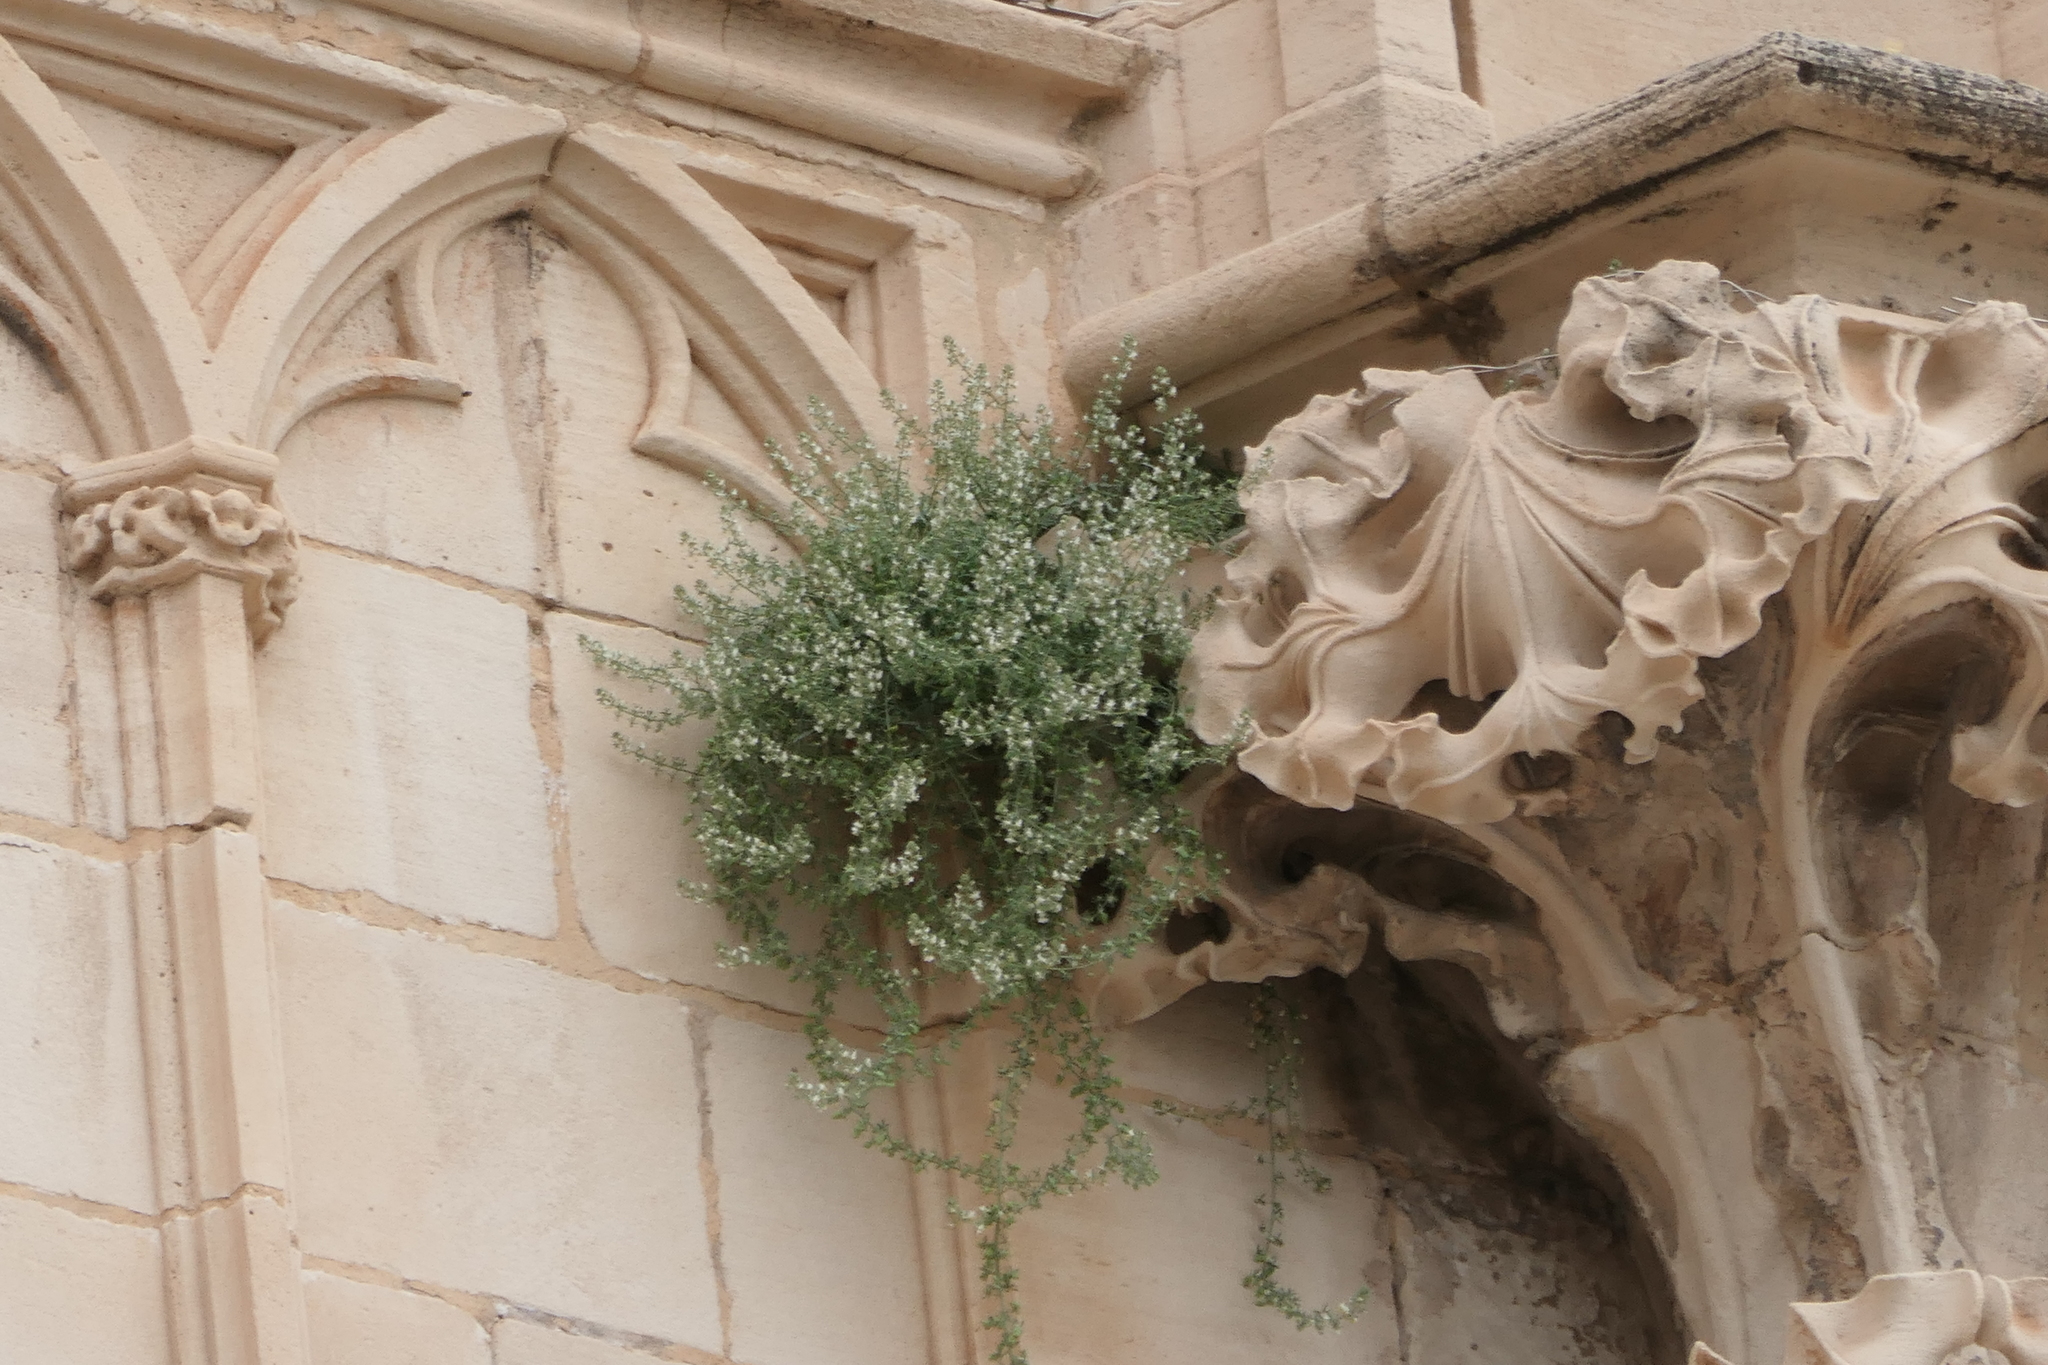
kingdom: Plantae
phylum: Tracheophyta
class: Magnoliopsida
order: Solanales
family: Solanaceae
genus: Hyoscyamus
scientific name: Hyoscyamus albus
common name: White henbane
